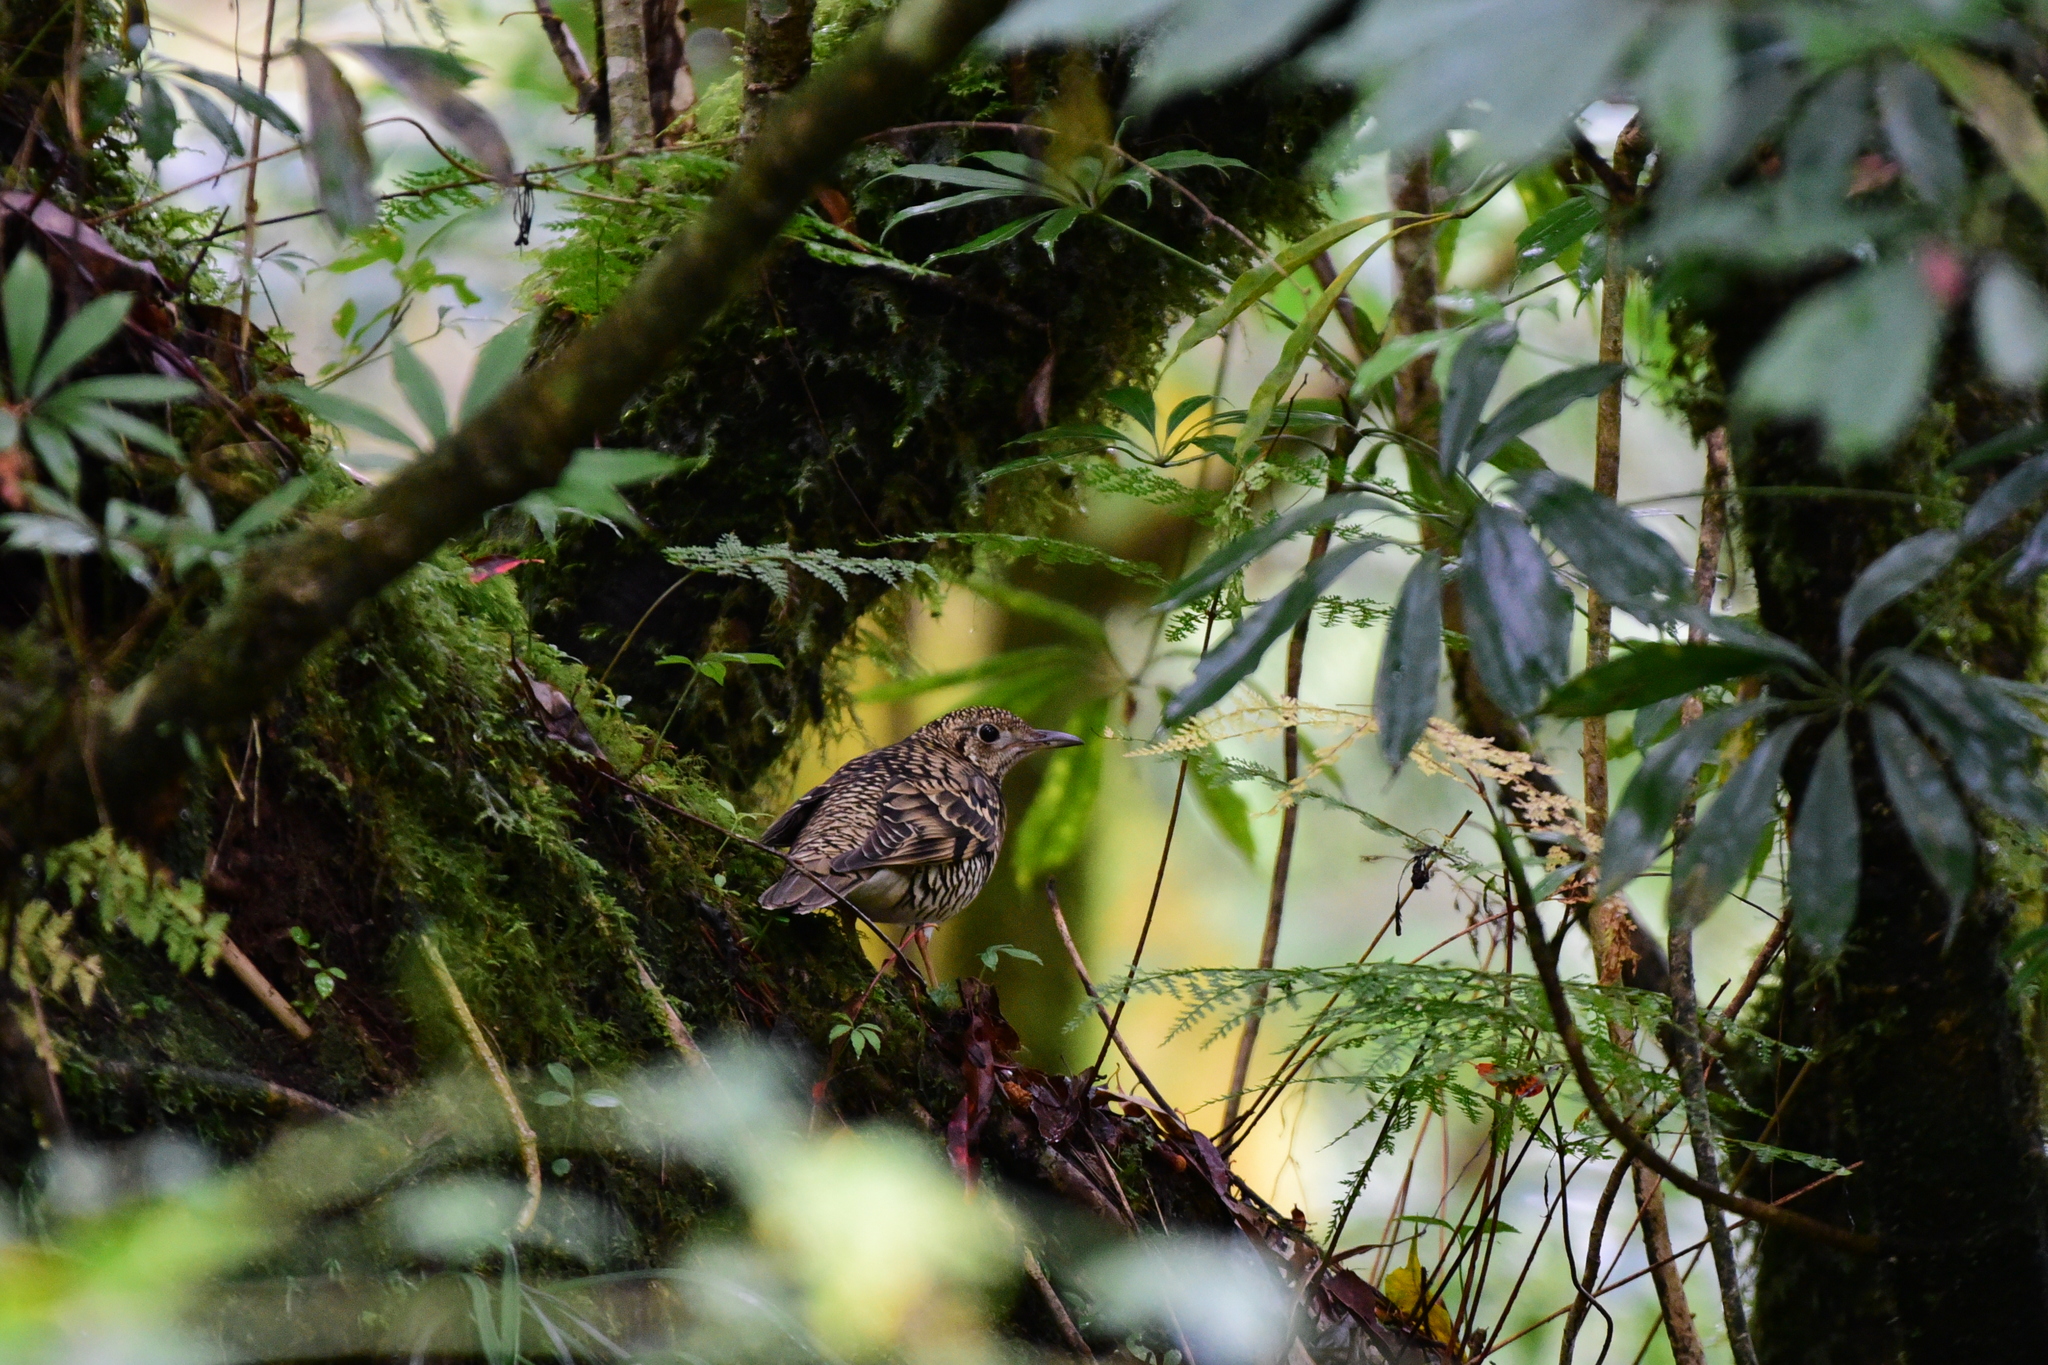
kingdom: Animalia
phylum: Chordata
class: Aves
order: Passeriformes
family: Turdidae
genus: Zoothera
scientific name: Zoothera aurea
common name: White's thrush
